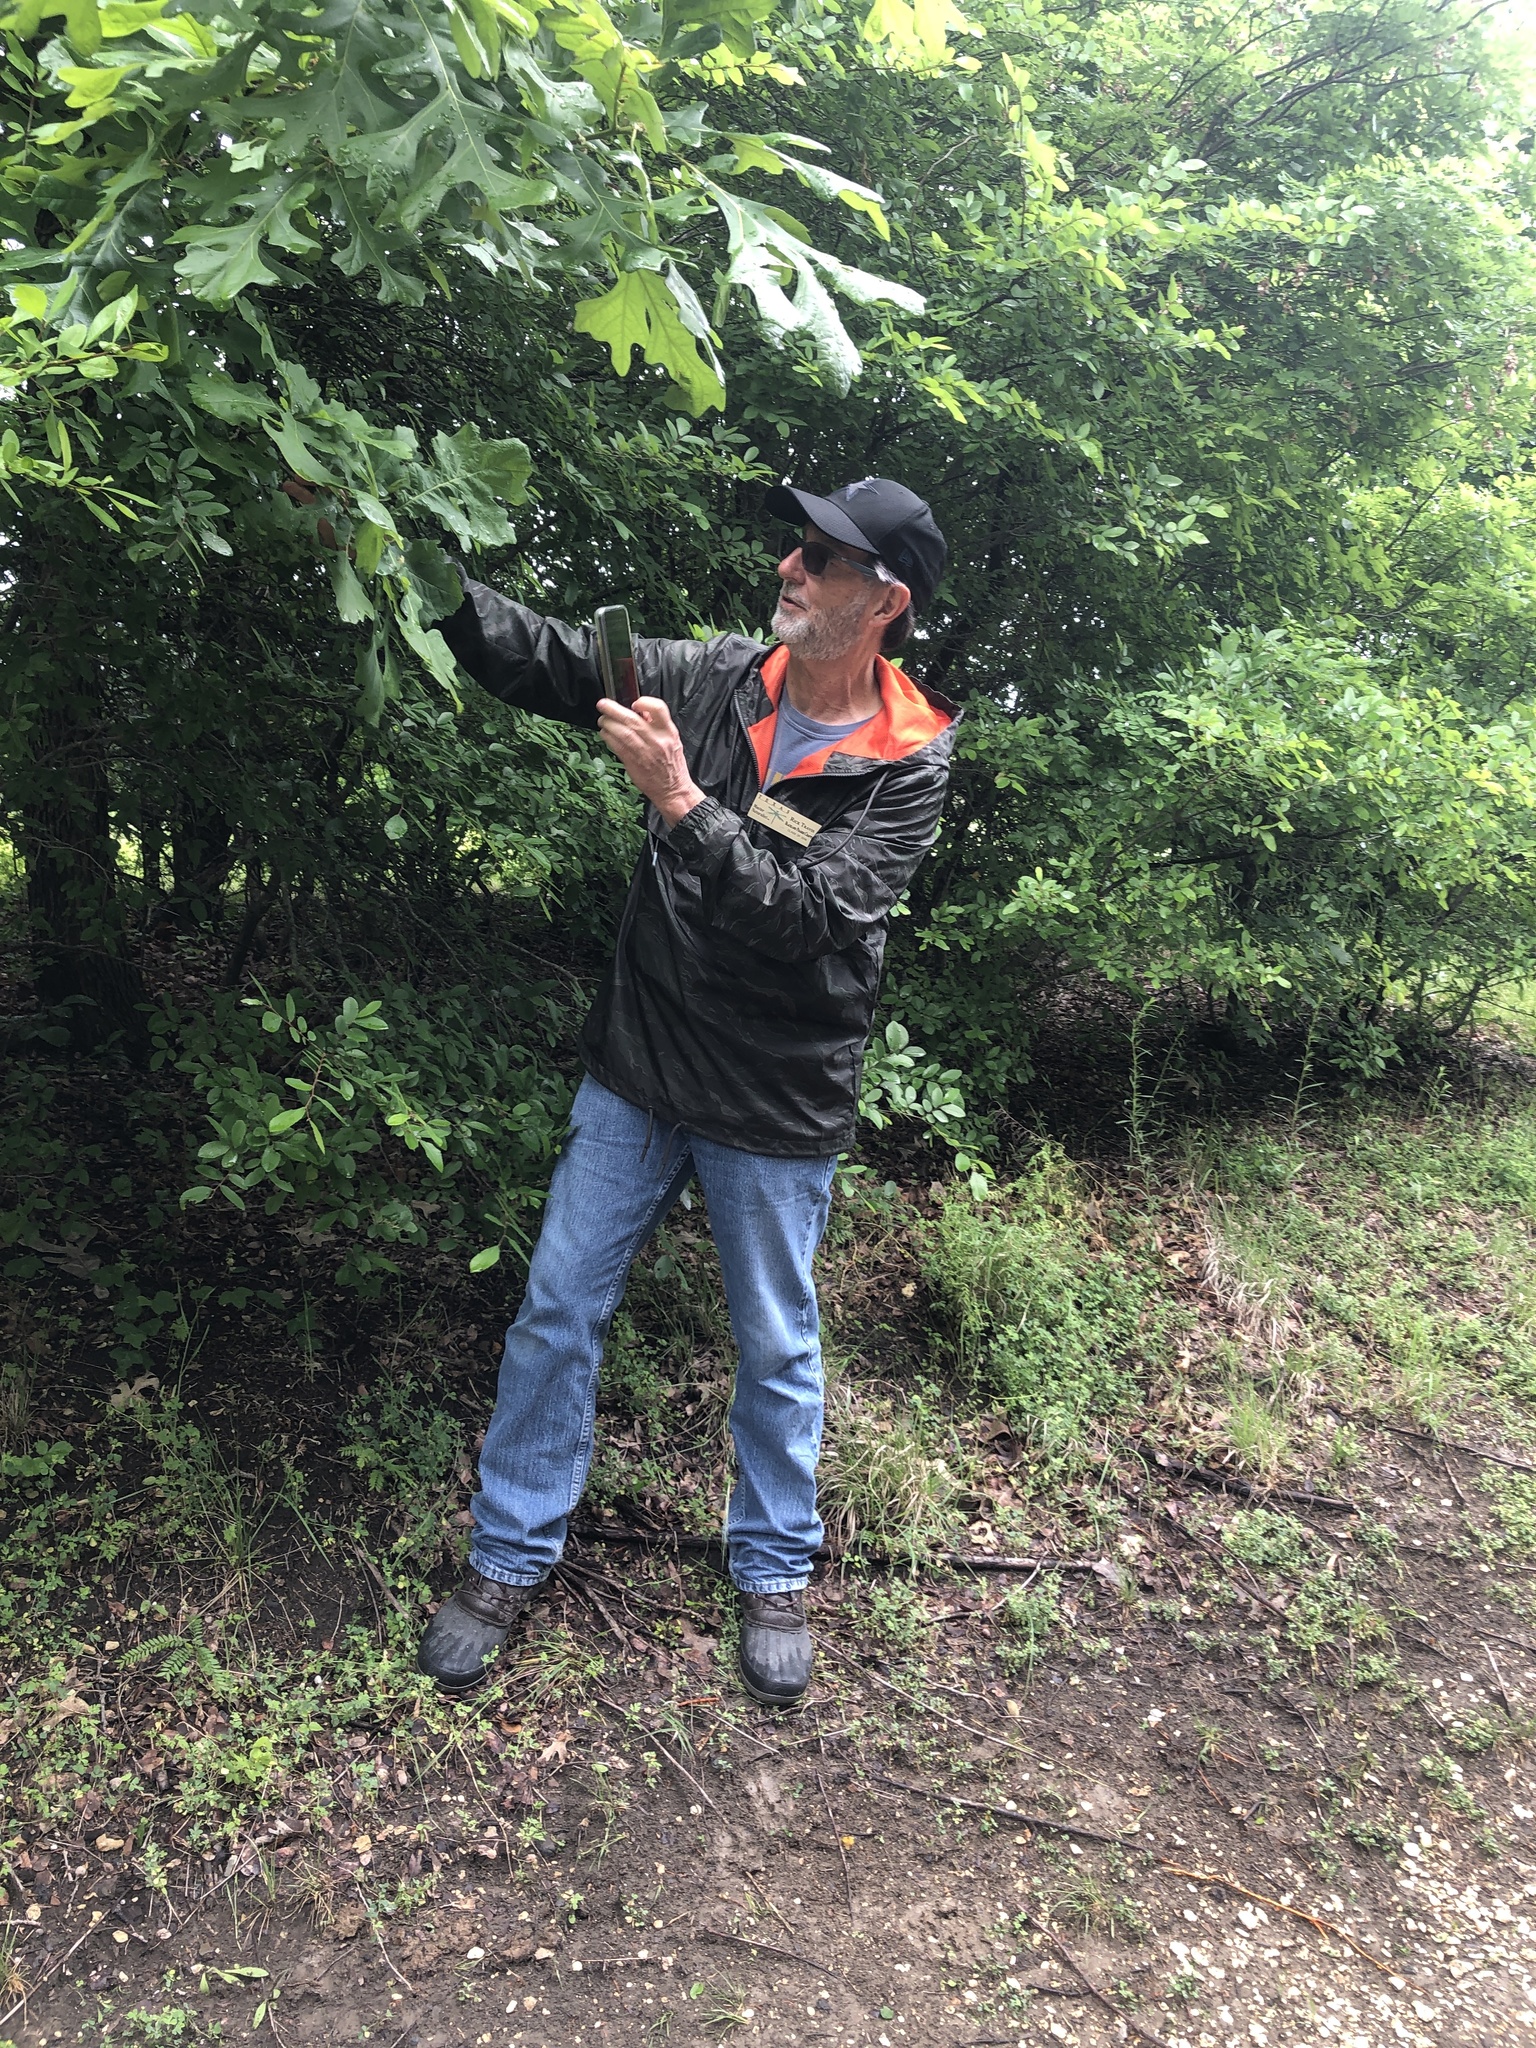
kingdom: Plantae
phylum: Tracheophyta
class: Magnoliopsida
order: Fagales
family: Fagaceae
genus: Quercus
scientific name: Quercus macrocarpa
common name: Bur oak
